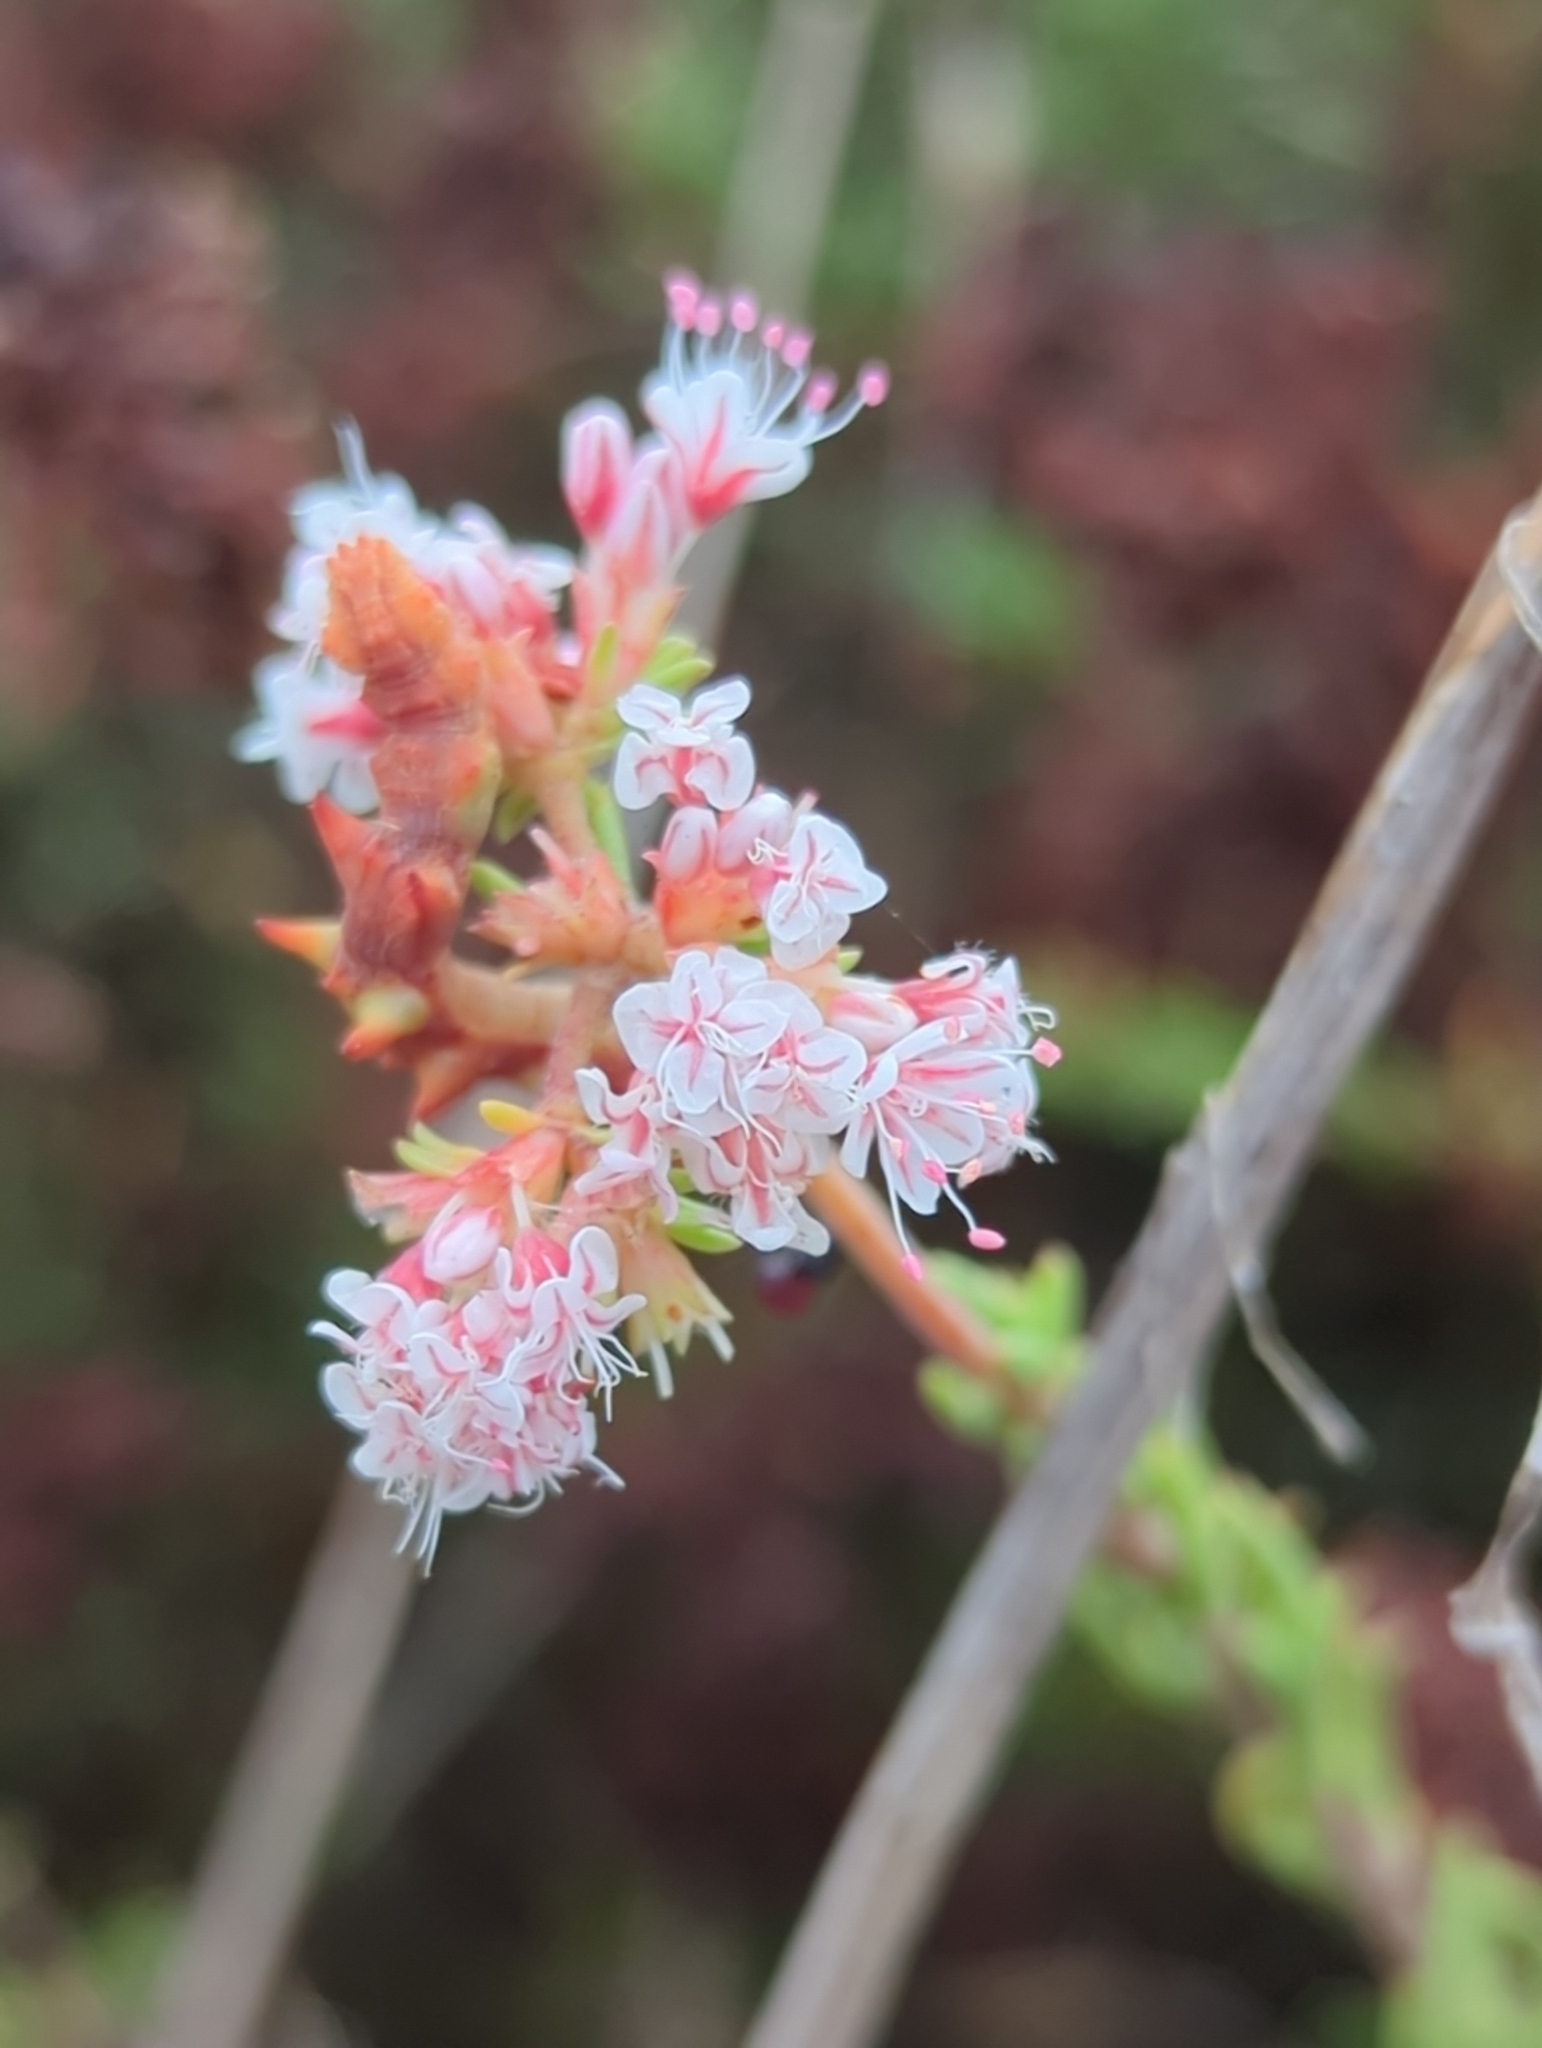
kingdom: Plantae
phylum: Tracheophyta
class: Magnoliopsida
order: Caryophyllales
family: Polygonaceae
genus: Eriogonum
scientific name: Eriogonum fasciculatum
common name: California wild buckwheat
